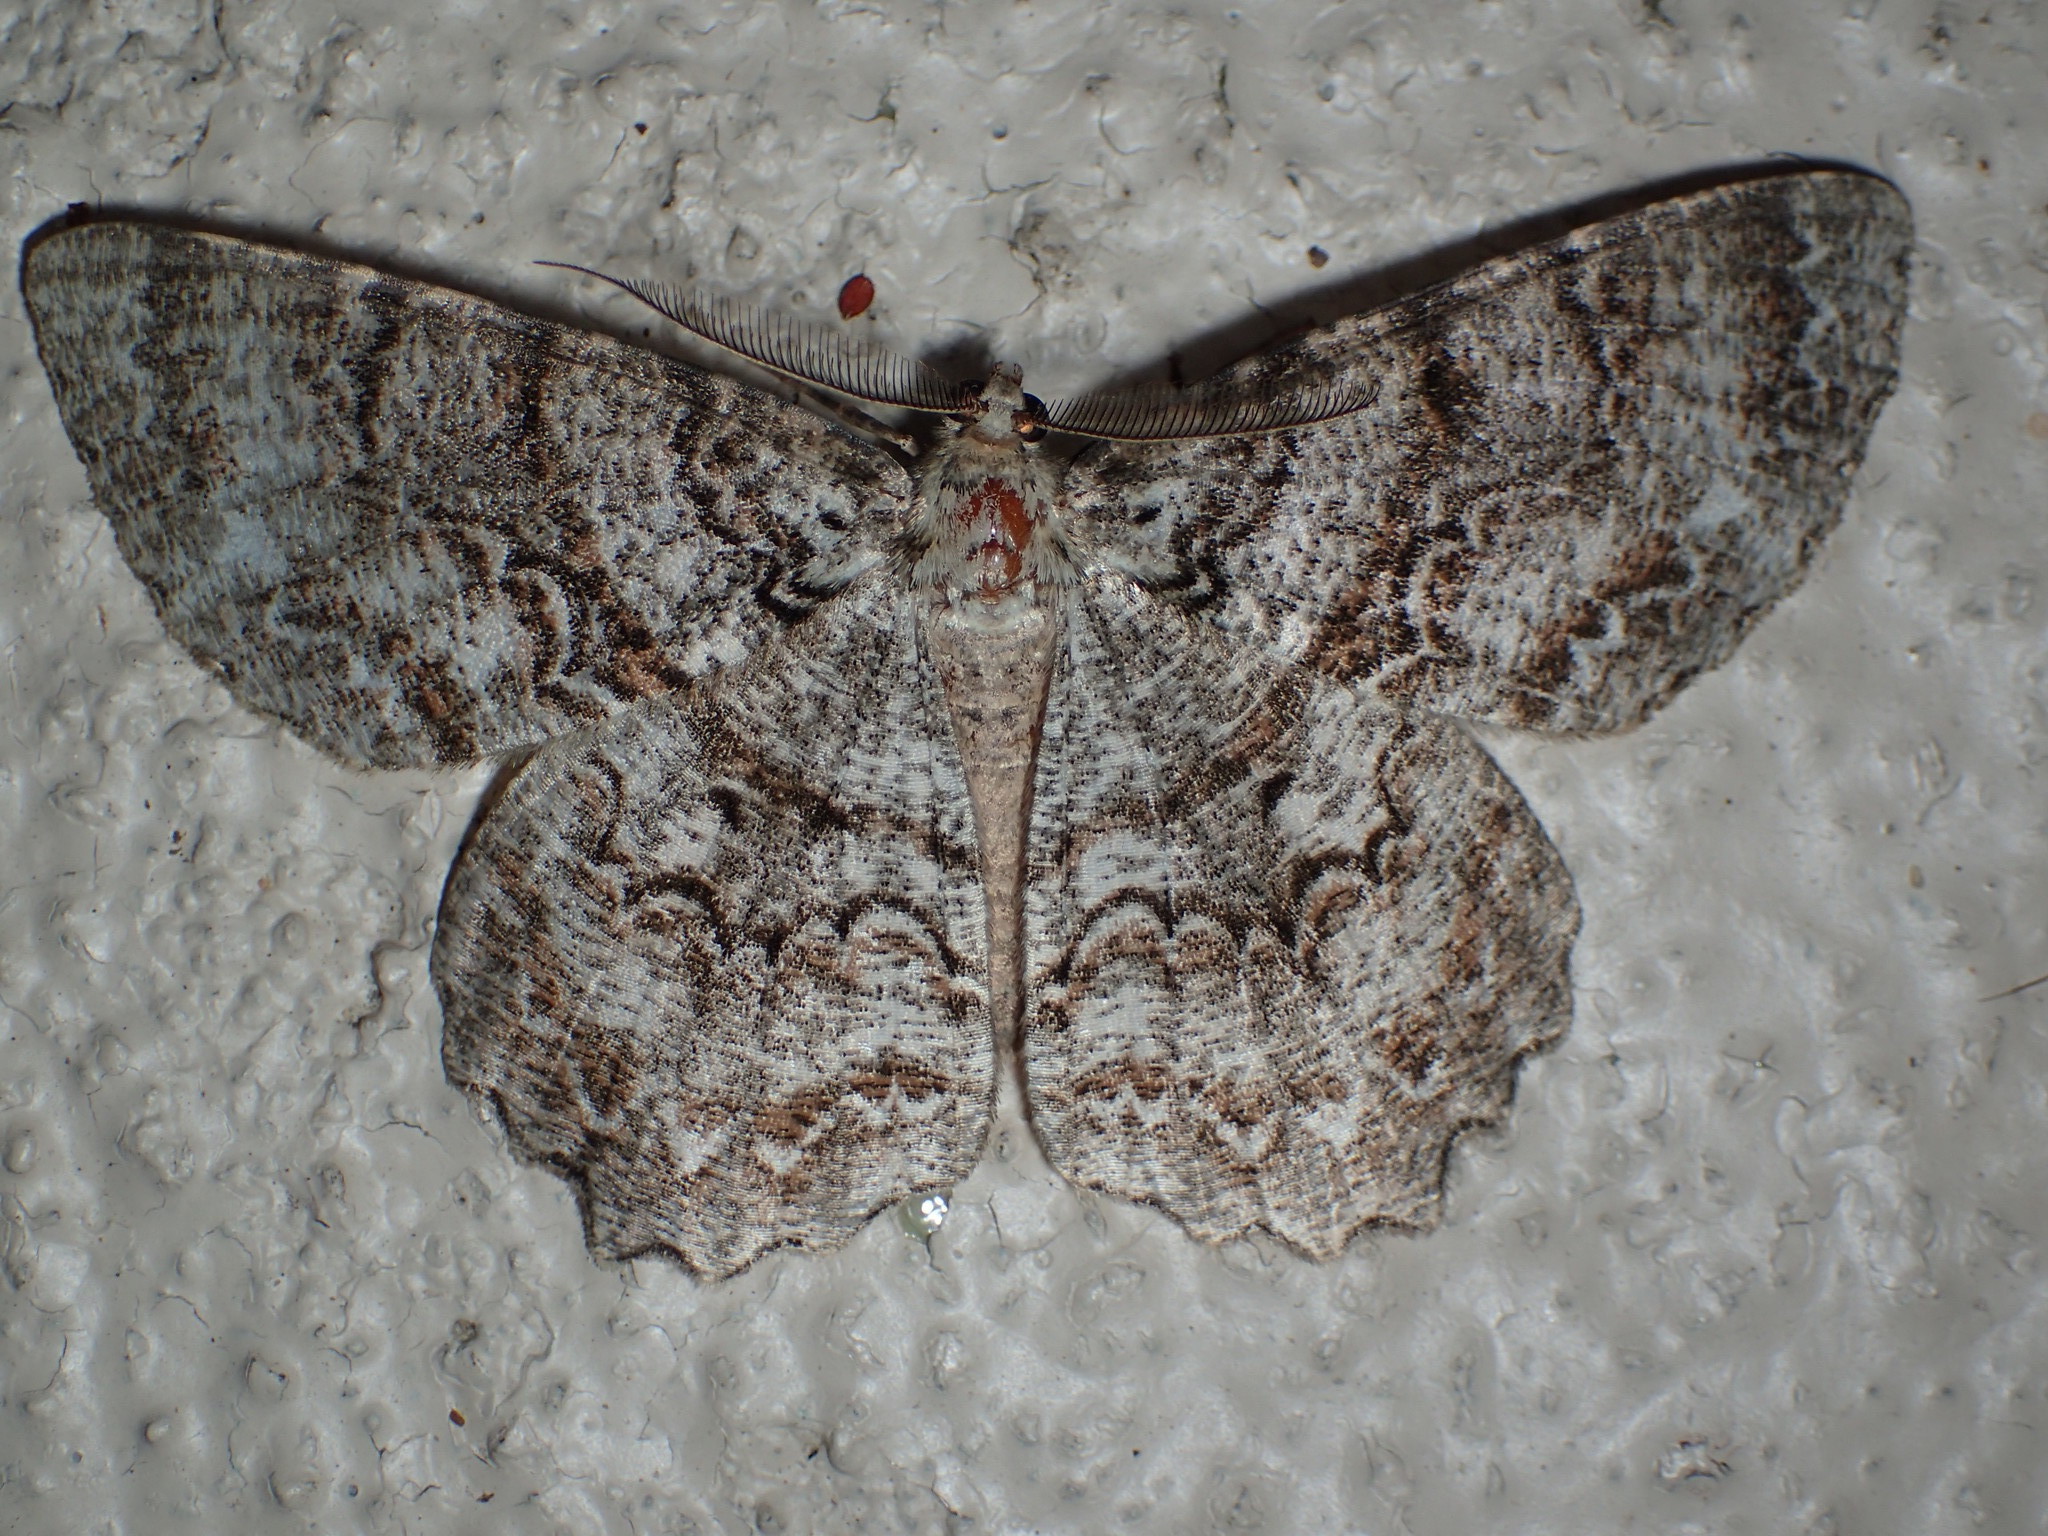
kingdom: Animalia
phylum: Arthropoda
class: Insecta
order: Lepidoptera
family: Geometridae
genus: Epimecis
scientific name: Epimecis hortaria
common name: Tulip-tree beauty
